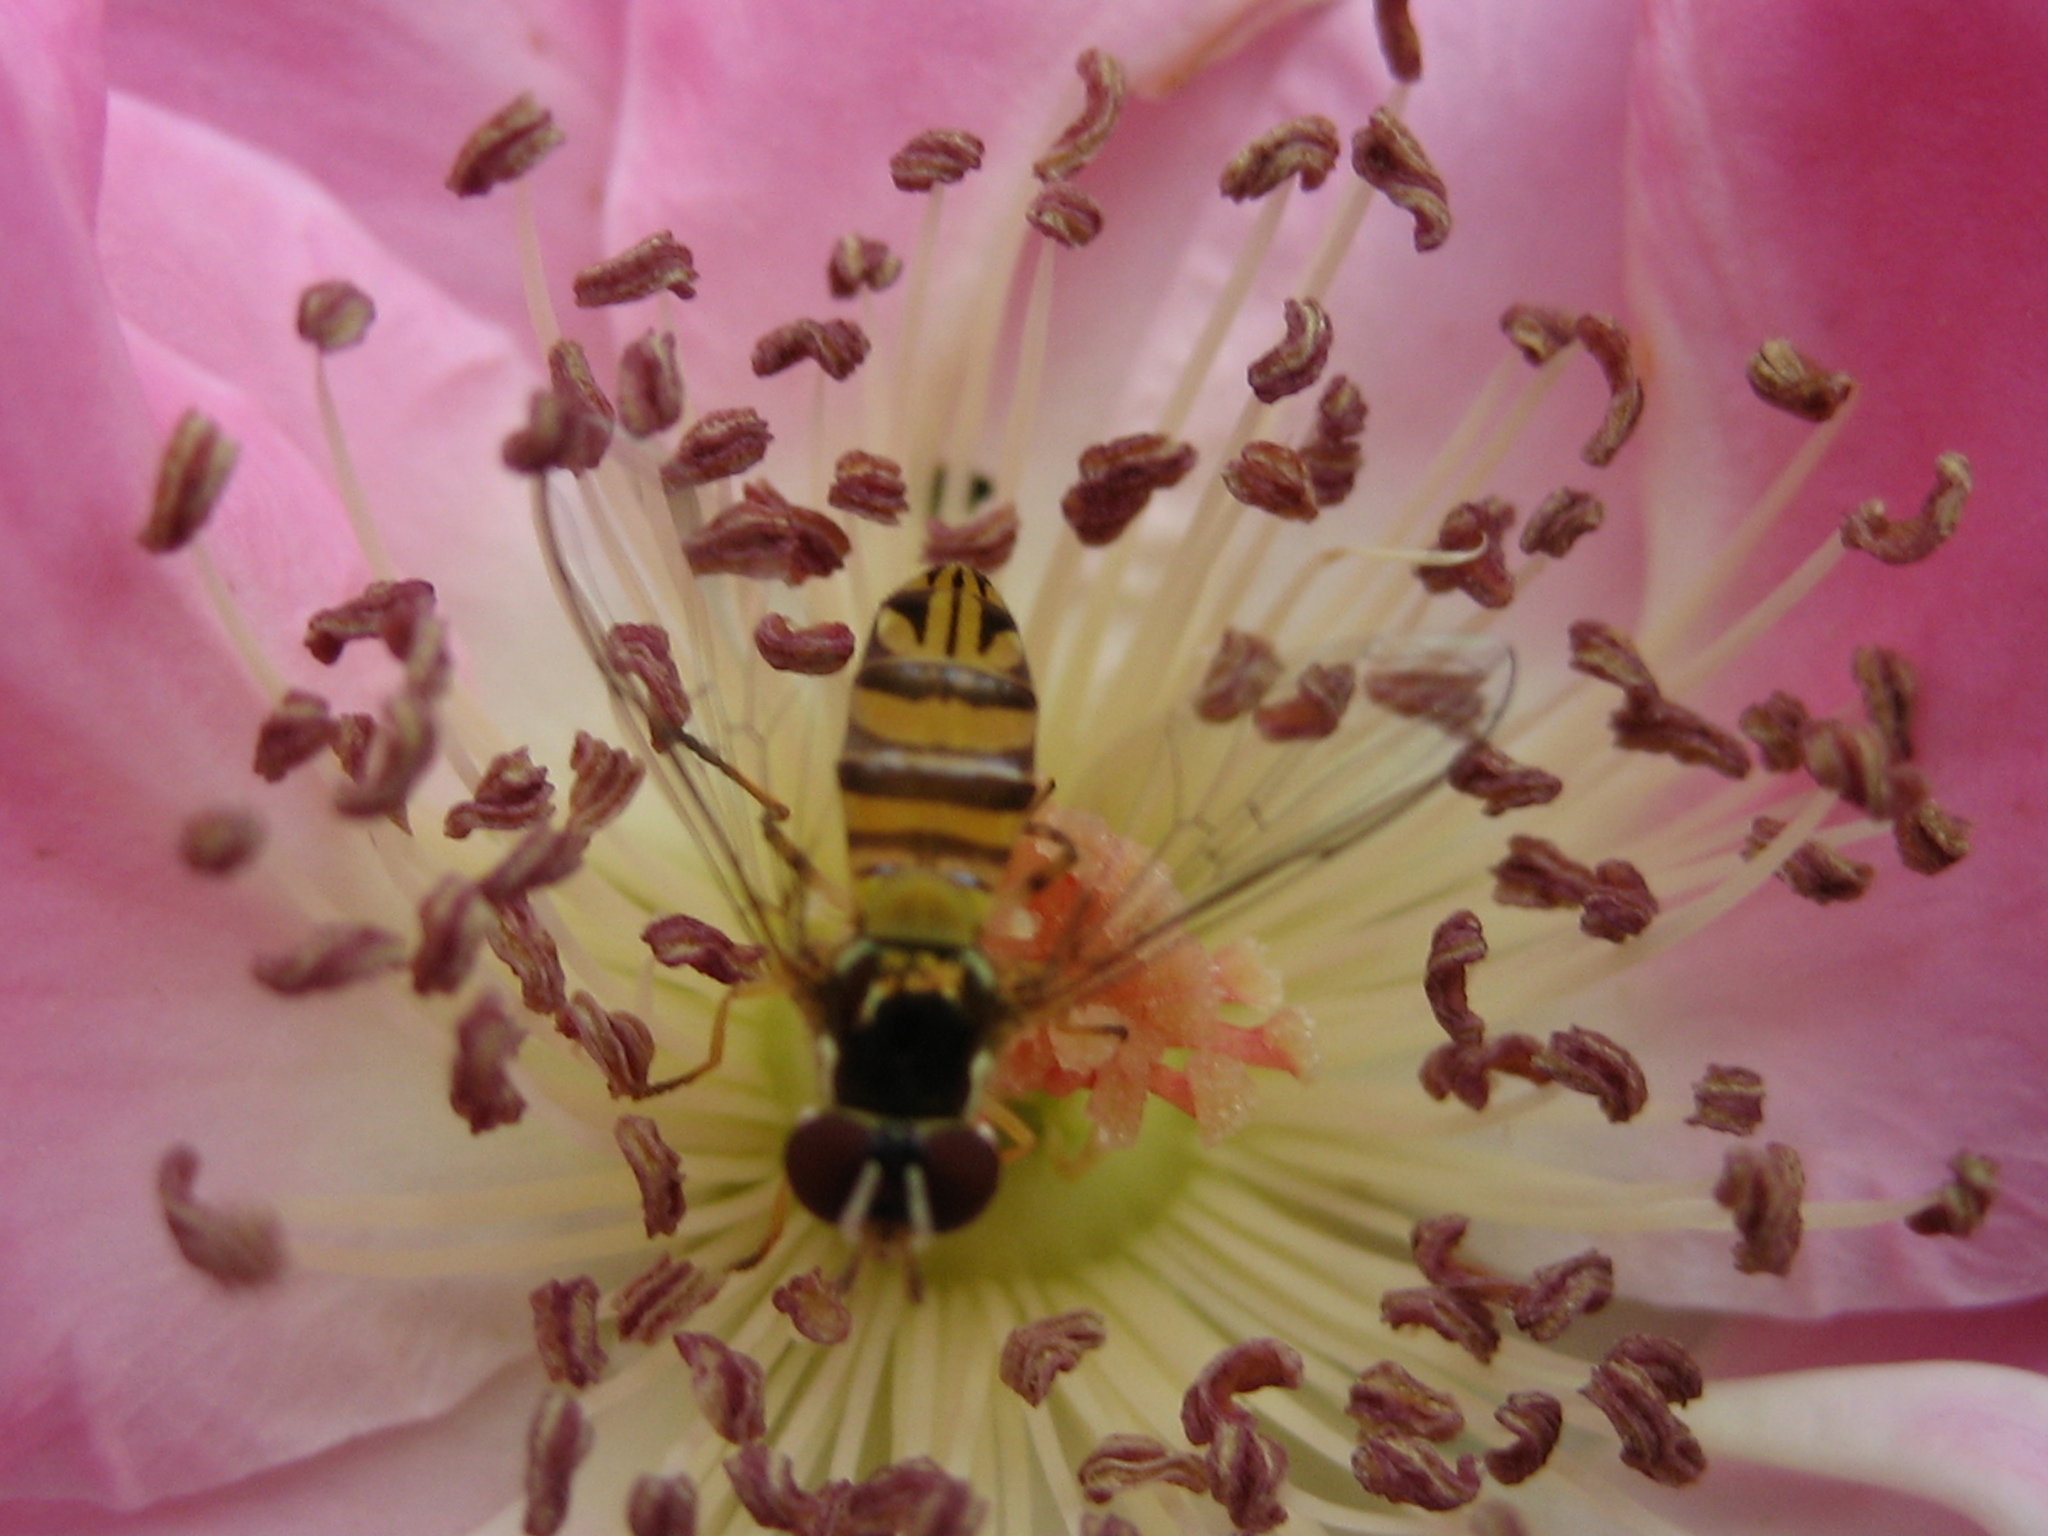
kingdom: Animalia
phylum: Arthropoda
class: Insecta
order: Diptera
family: Syrphidae
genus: Allograpta
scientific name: Allograpta obliqua
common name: Common oblique syrphid
